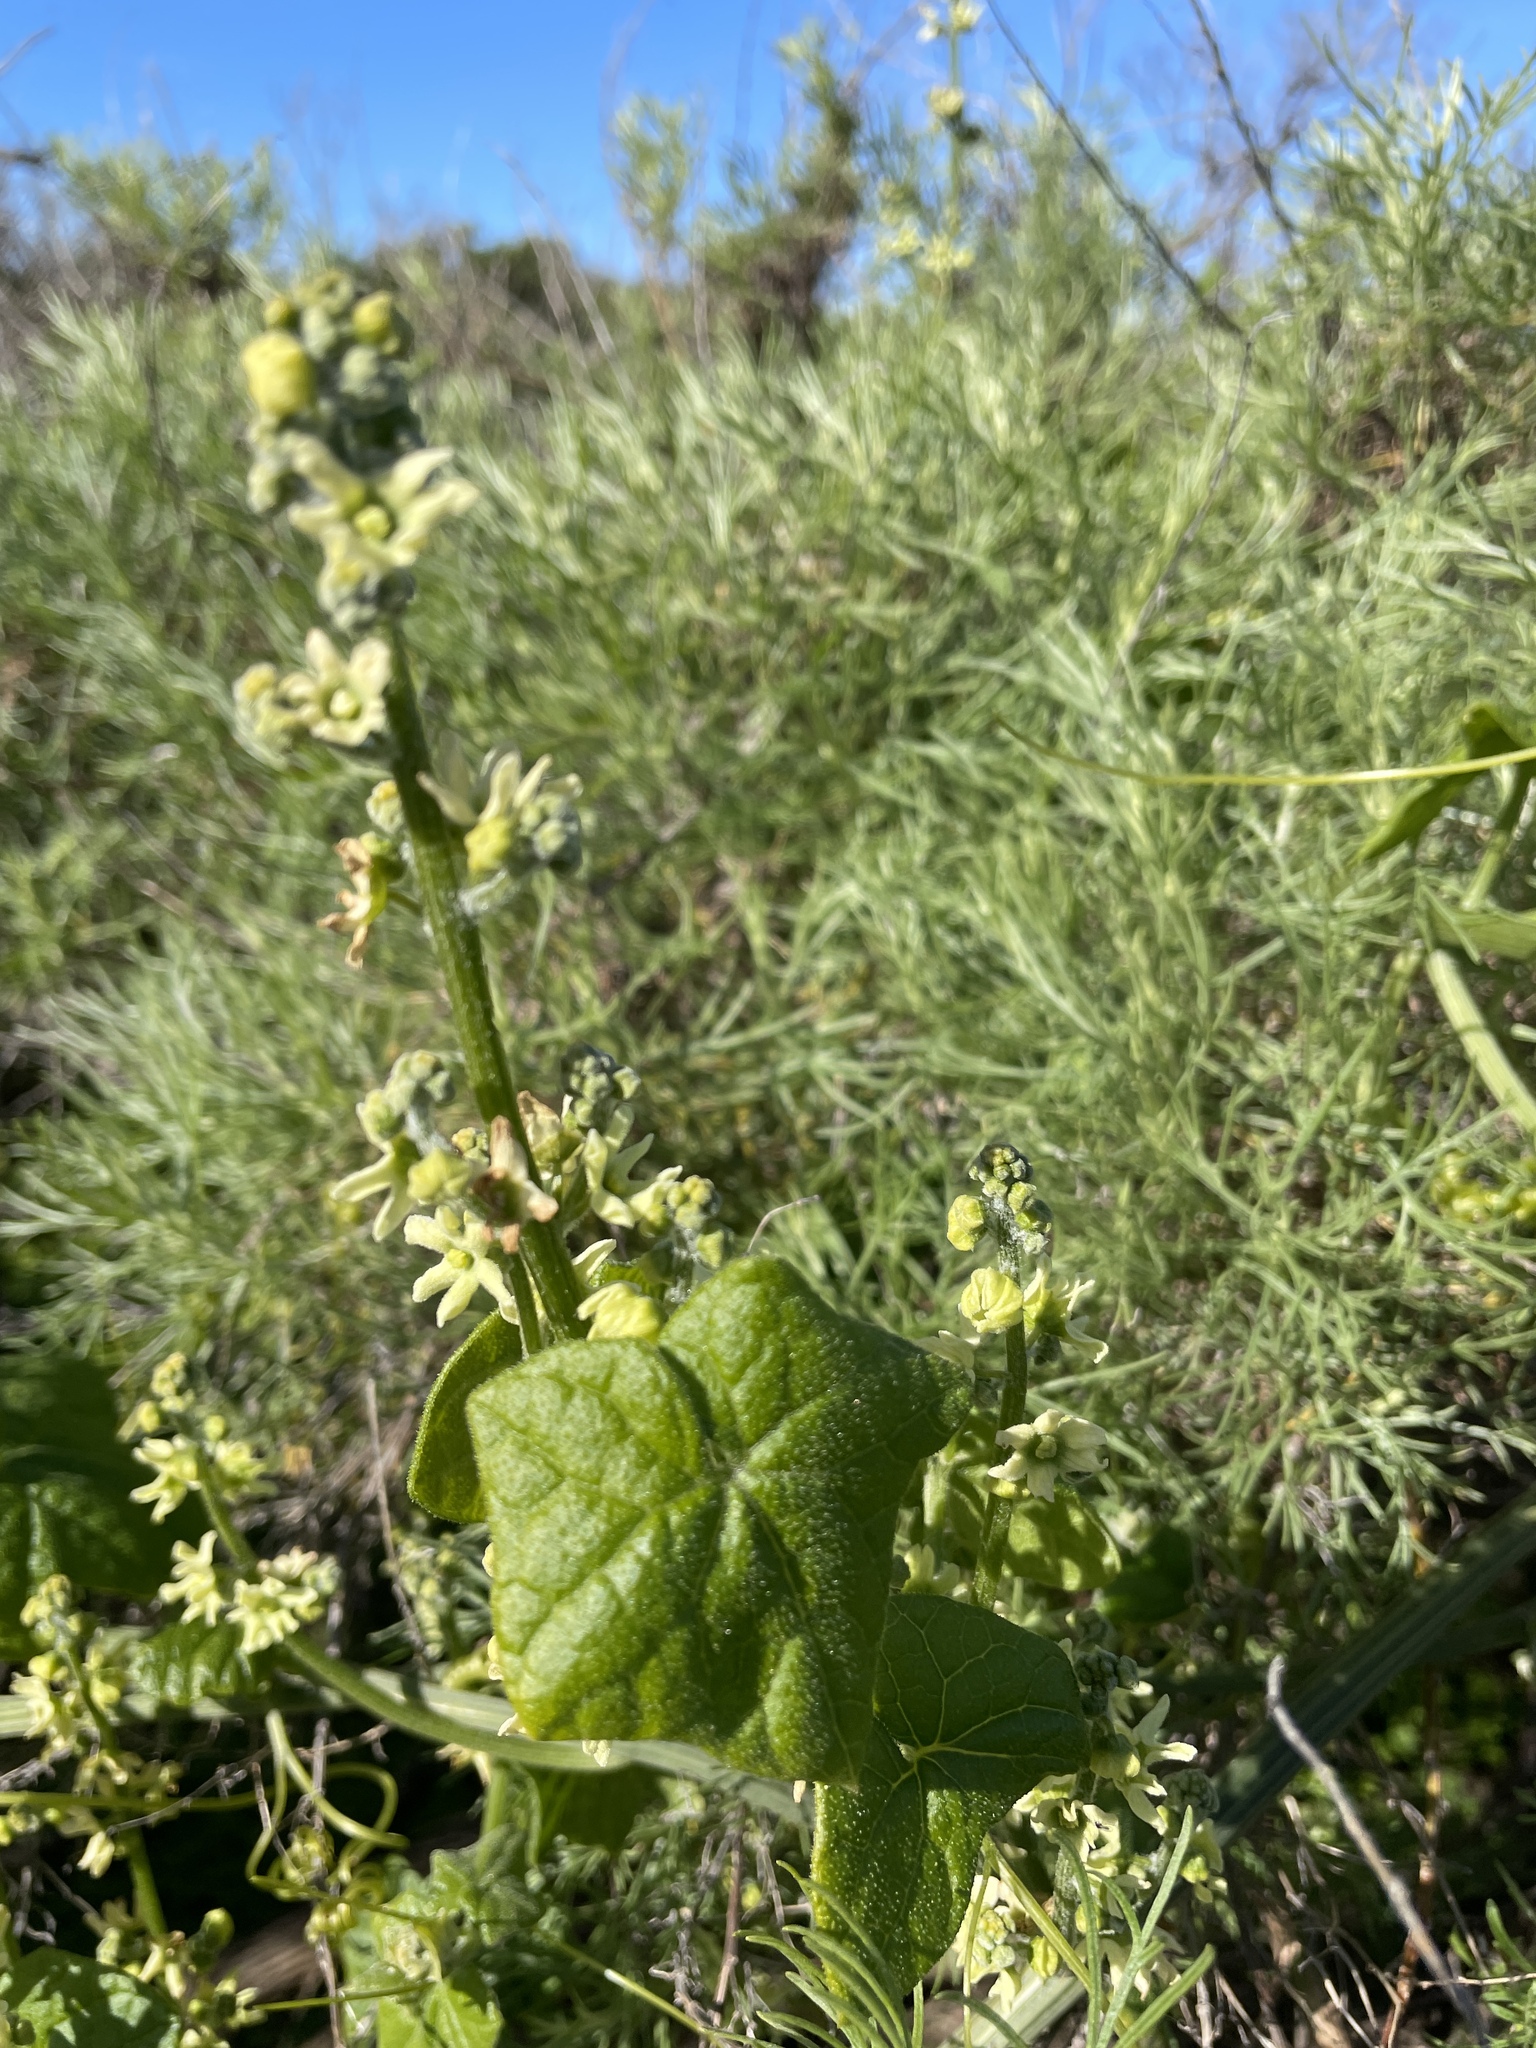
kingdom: Plantae
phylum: Tracheophyta
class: Magnoliopsida
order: Cucurbitales
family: Cucurbitaceae
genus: Marah
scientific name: Marah fabacea
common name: California manroot
